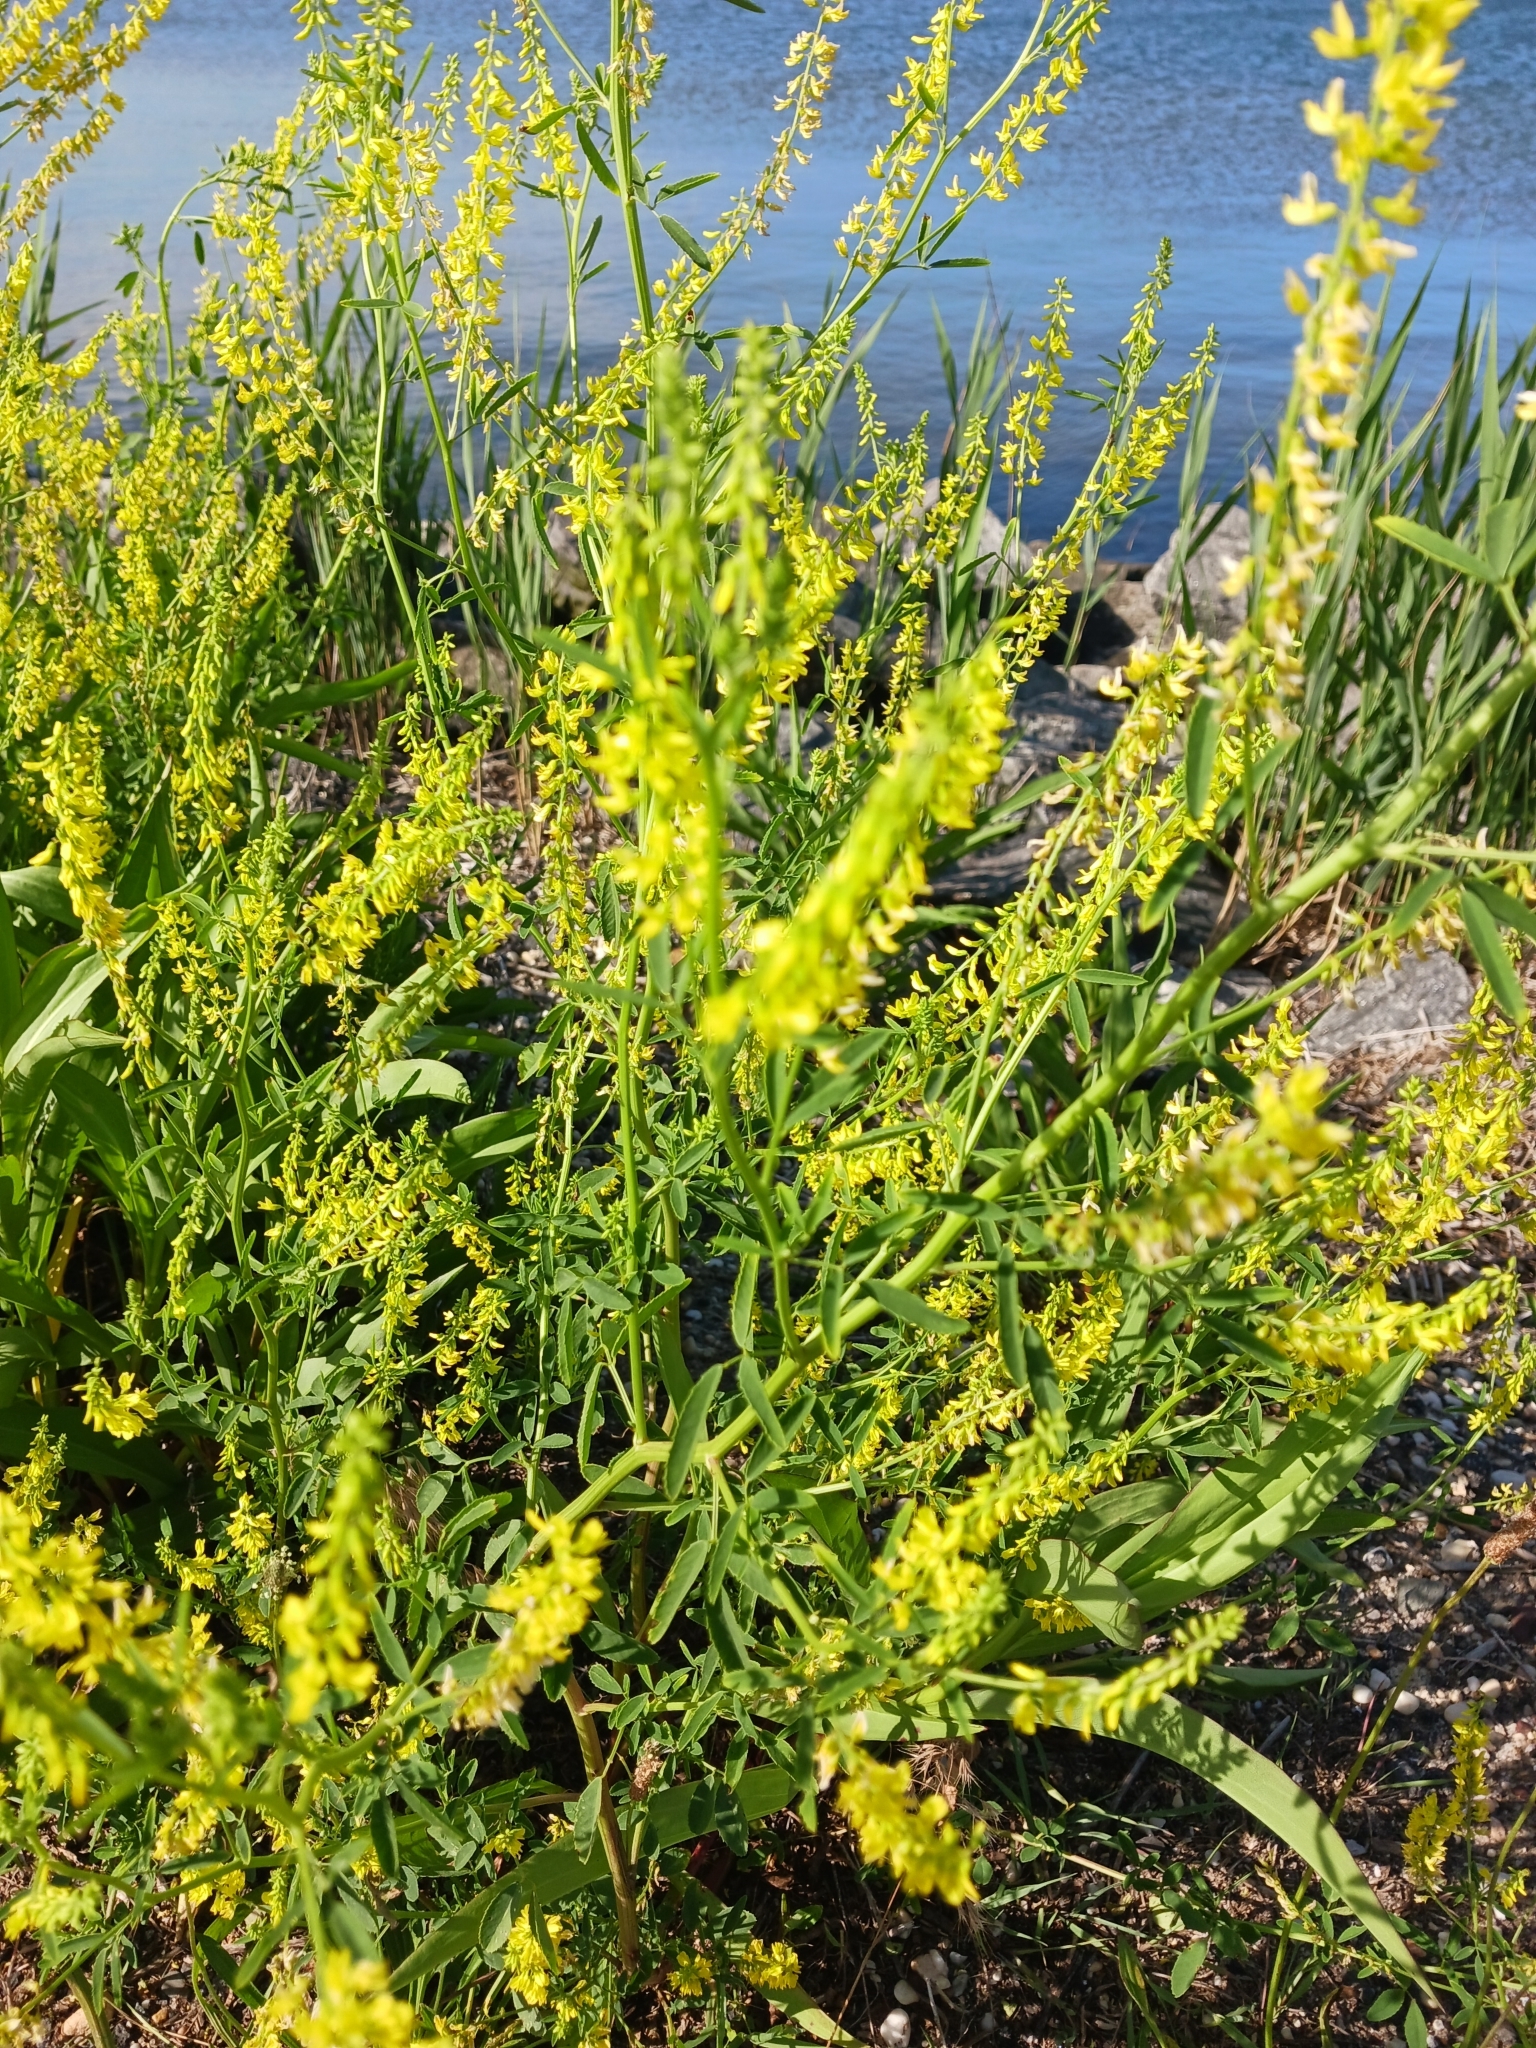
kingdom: Plantae
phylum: Tracheophyta
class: Magnoliopsida
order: Fabales
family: Fabaceae
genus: Melilotus
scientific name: Melilotus officinalis
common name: Sweetclover
